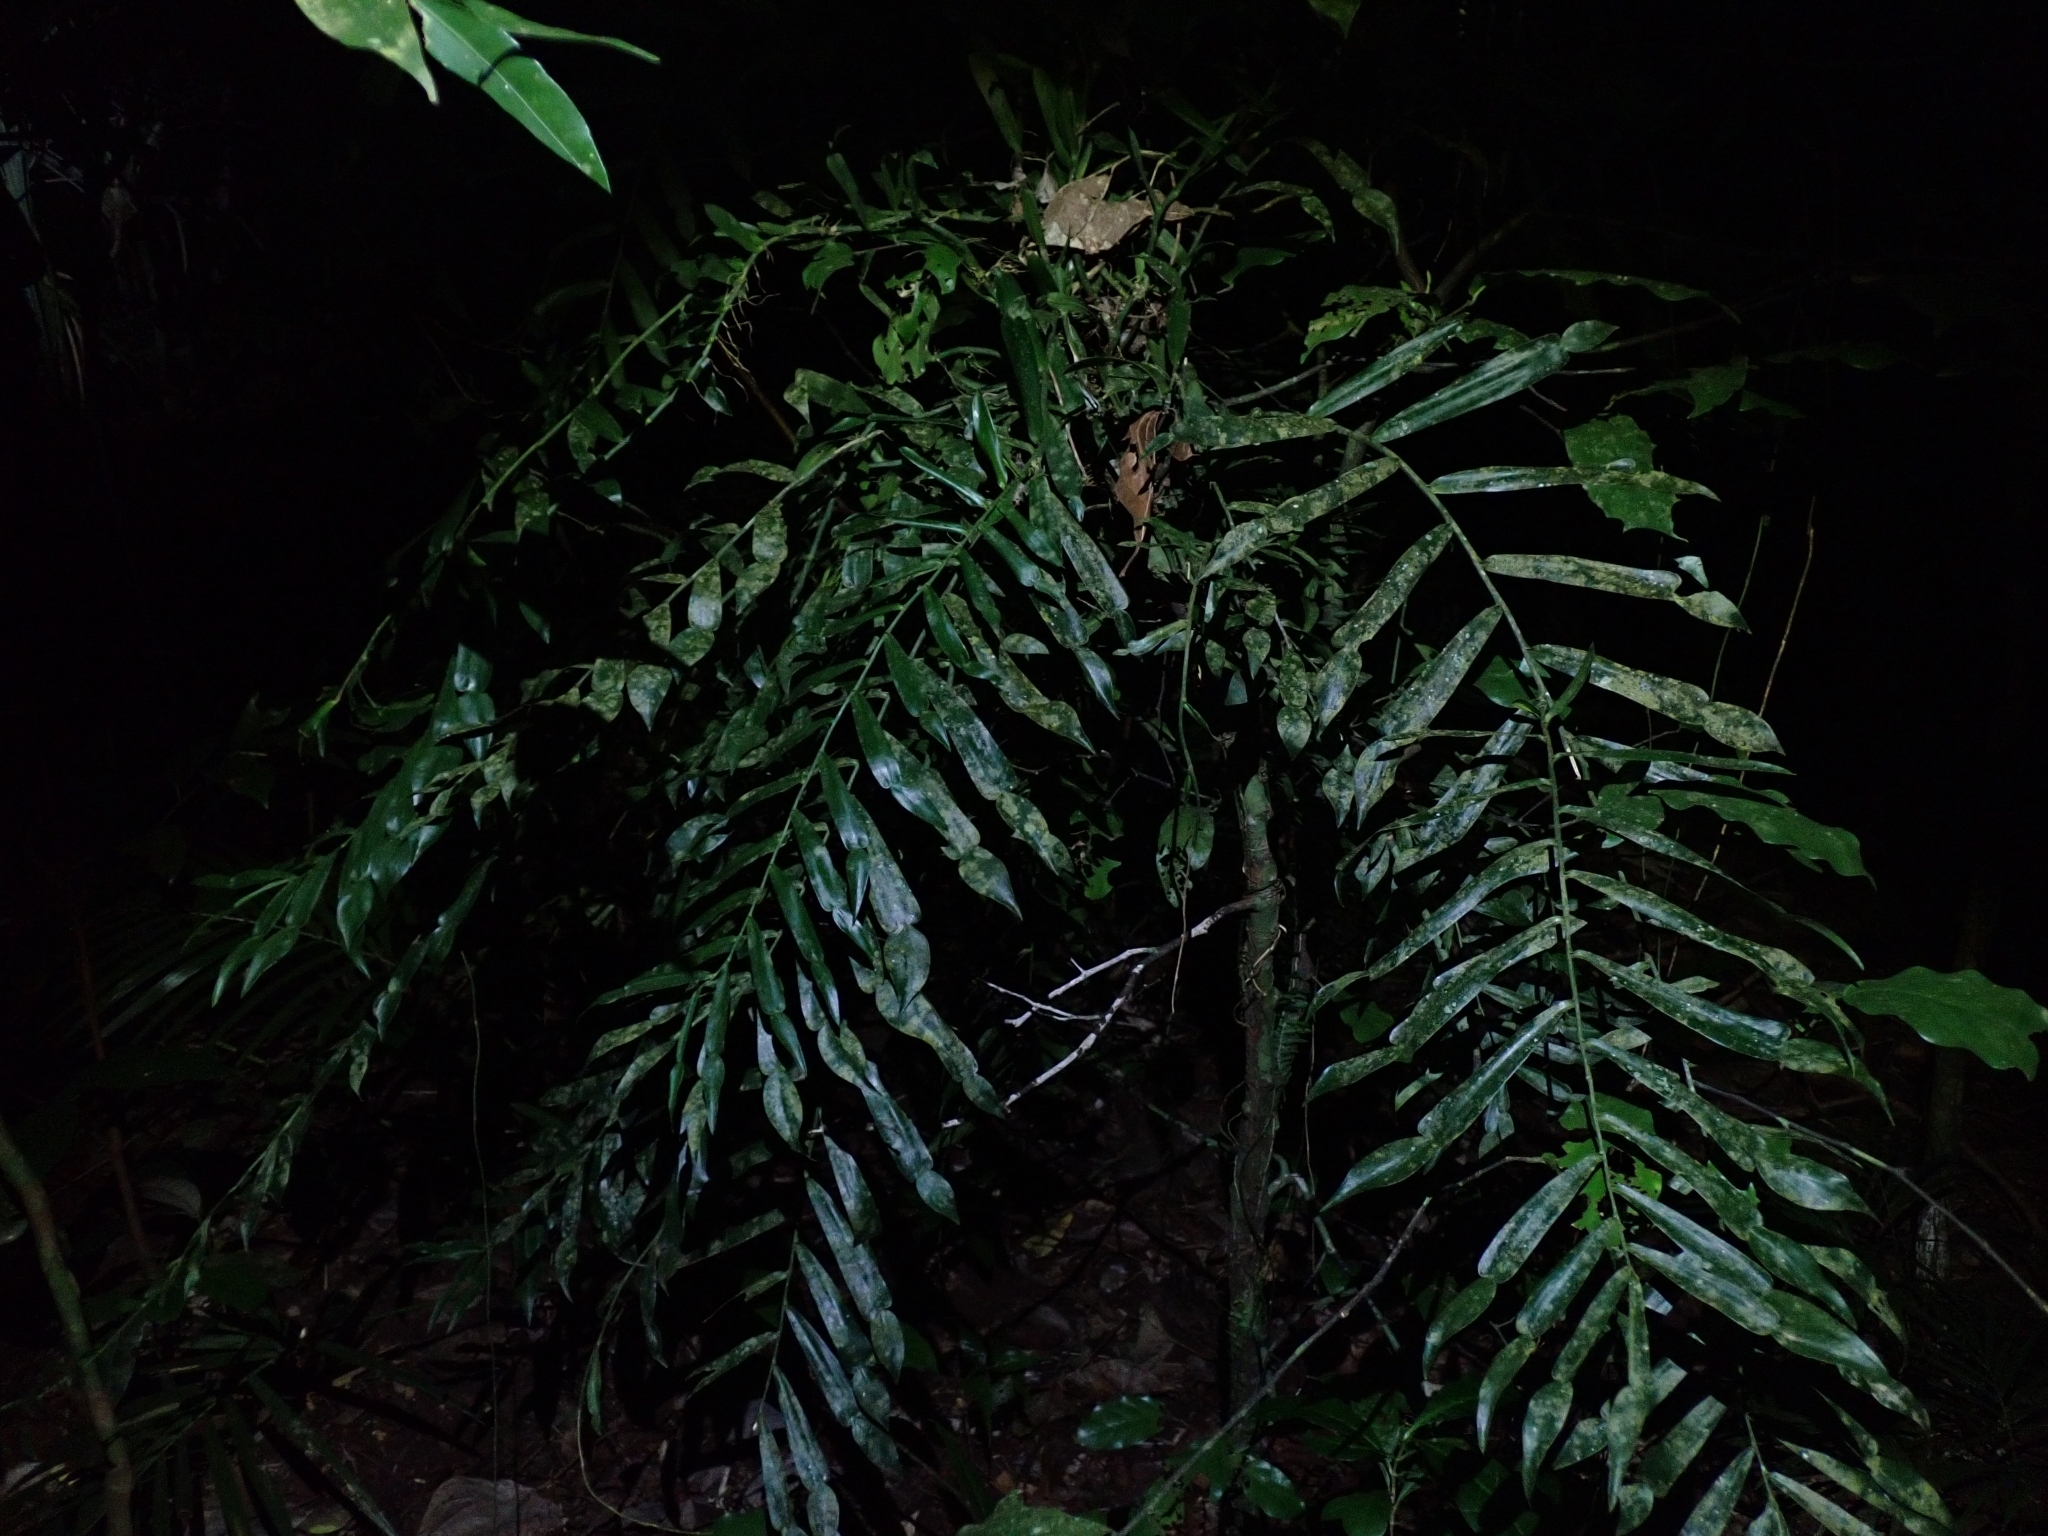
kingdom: Plantae
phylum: Tracheophyta
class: Liliopsida
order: Alismatales
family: Araceae
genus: Pothos
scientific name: Pothos longipes
